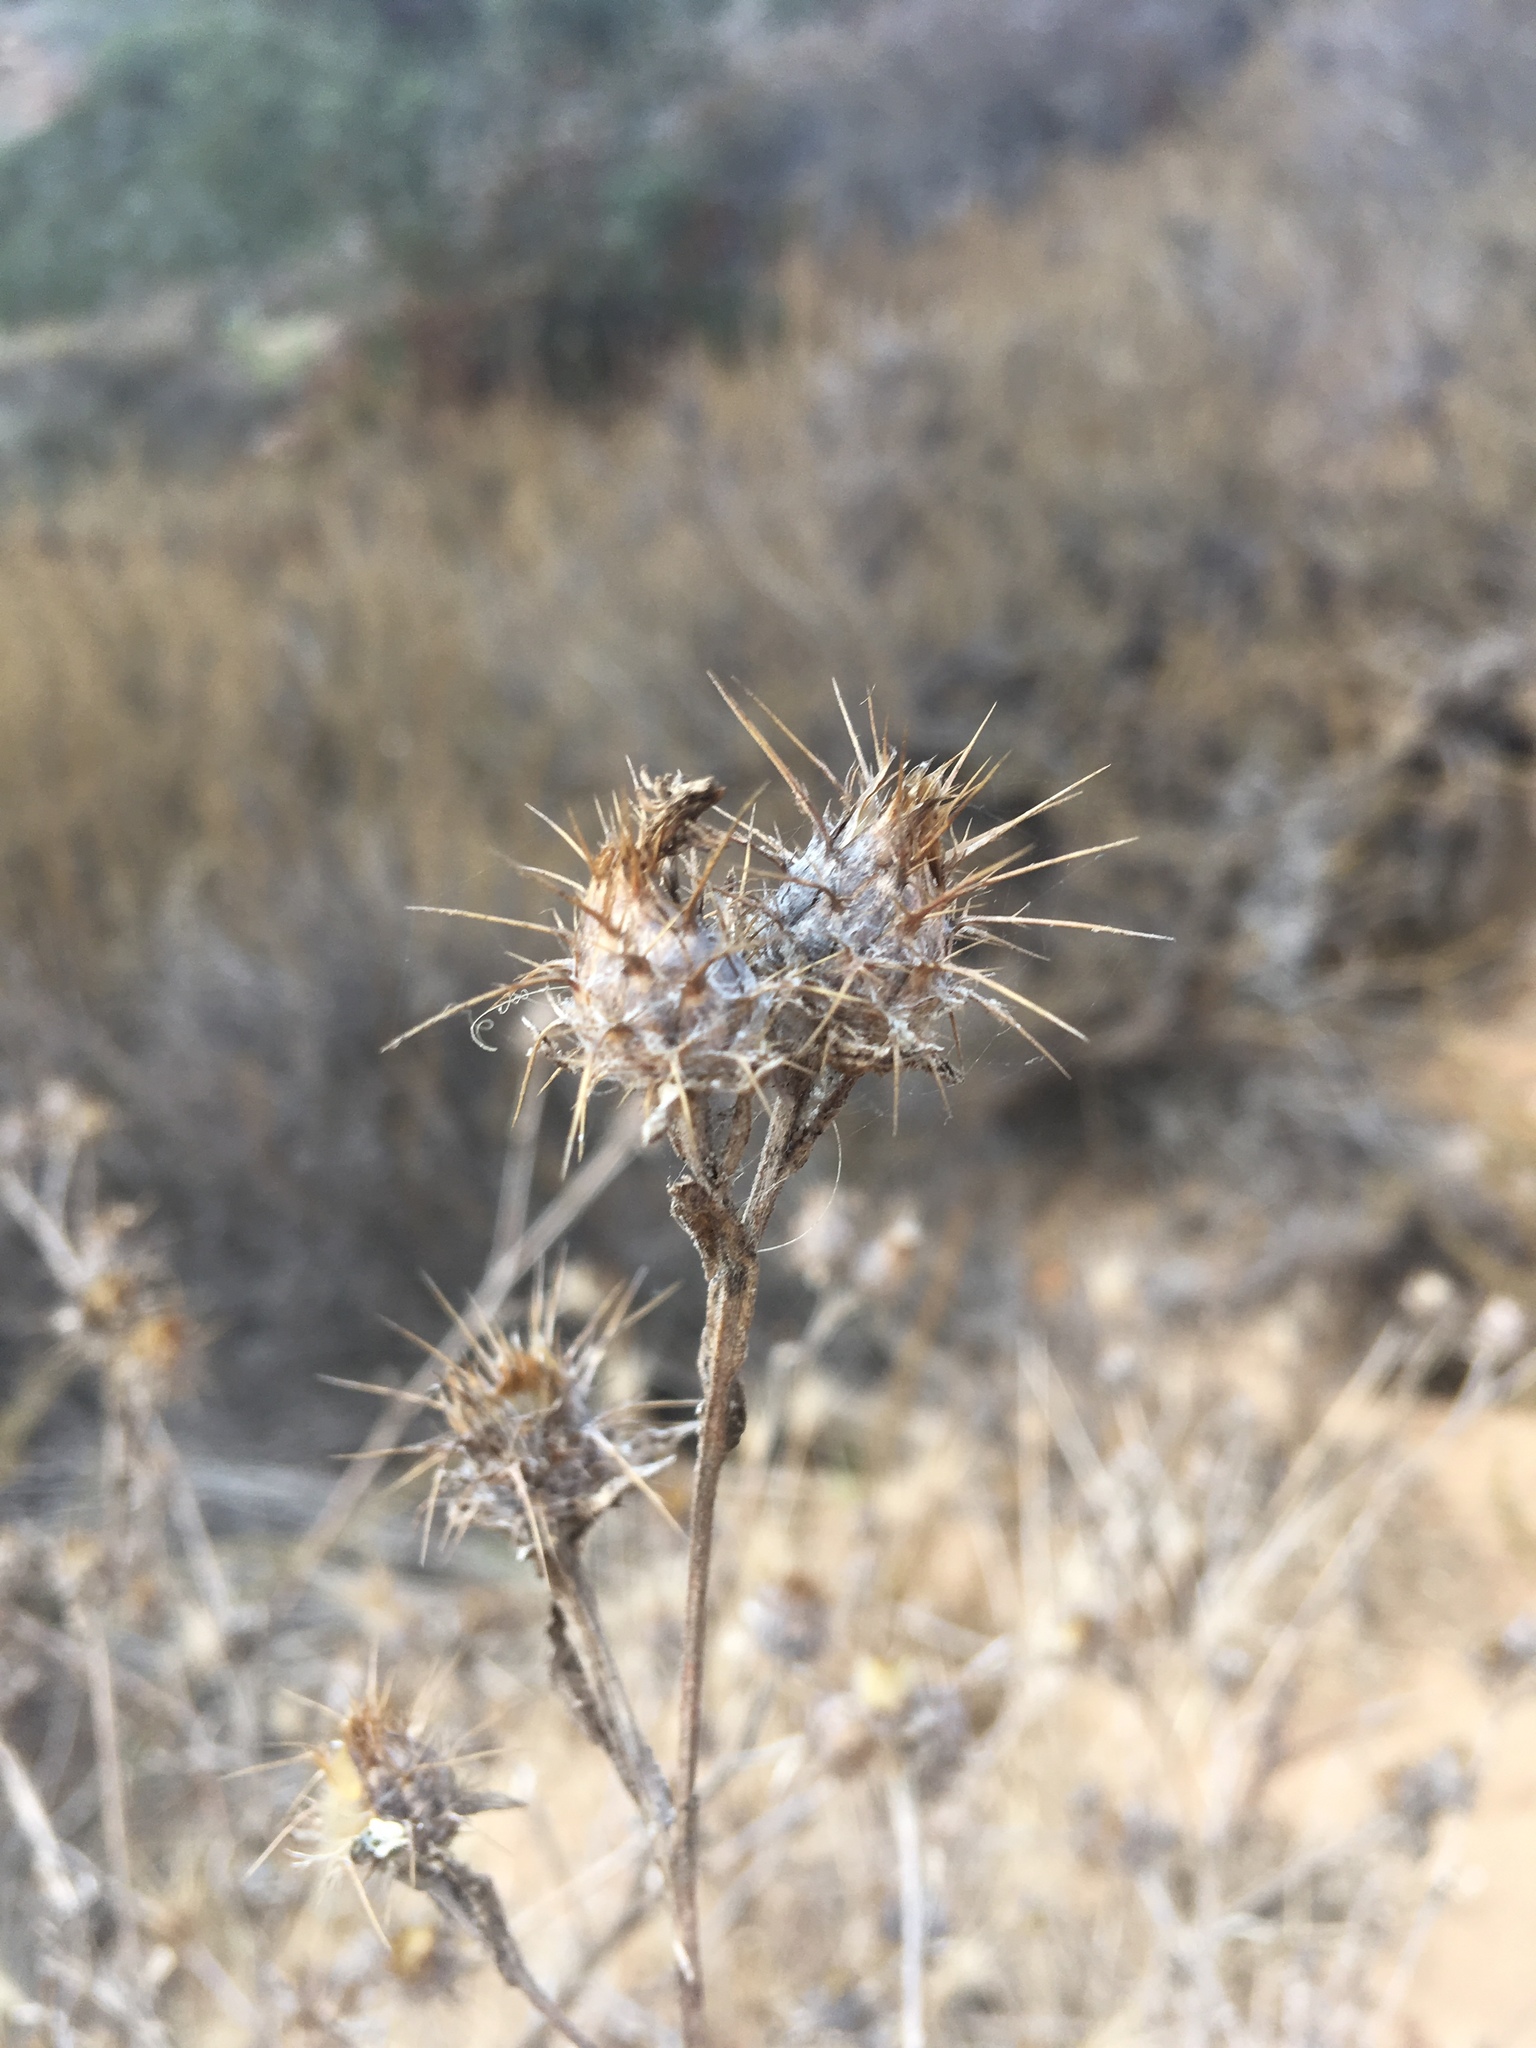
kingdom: Plantae
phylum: Tracheophyta
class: Magnoliopsida
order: Asterales
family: Asteraceae
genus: Centaurea
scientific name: Centaurea melitensis
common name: Maltese star-thistle
